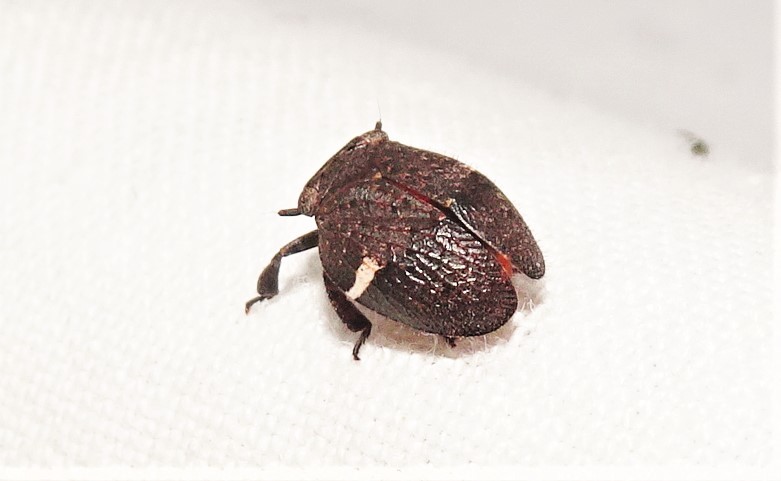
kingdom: Animalia
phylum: Arthropoda
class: Insecta
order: Hemiptera
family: Eurybrachidae
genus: Dardus
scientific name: Dardus abbreviatus
